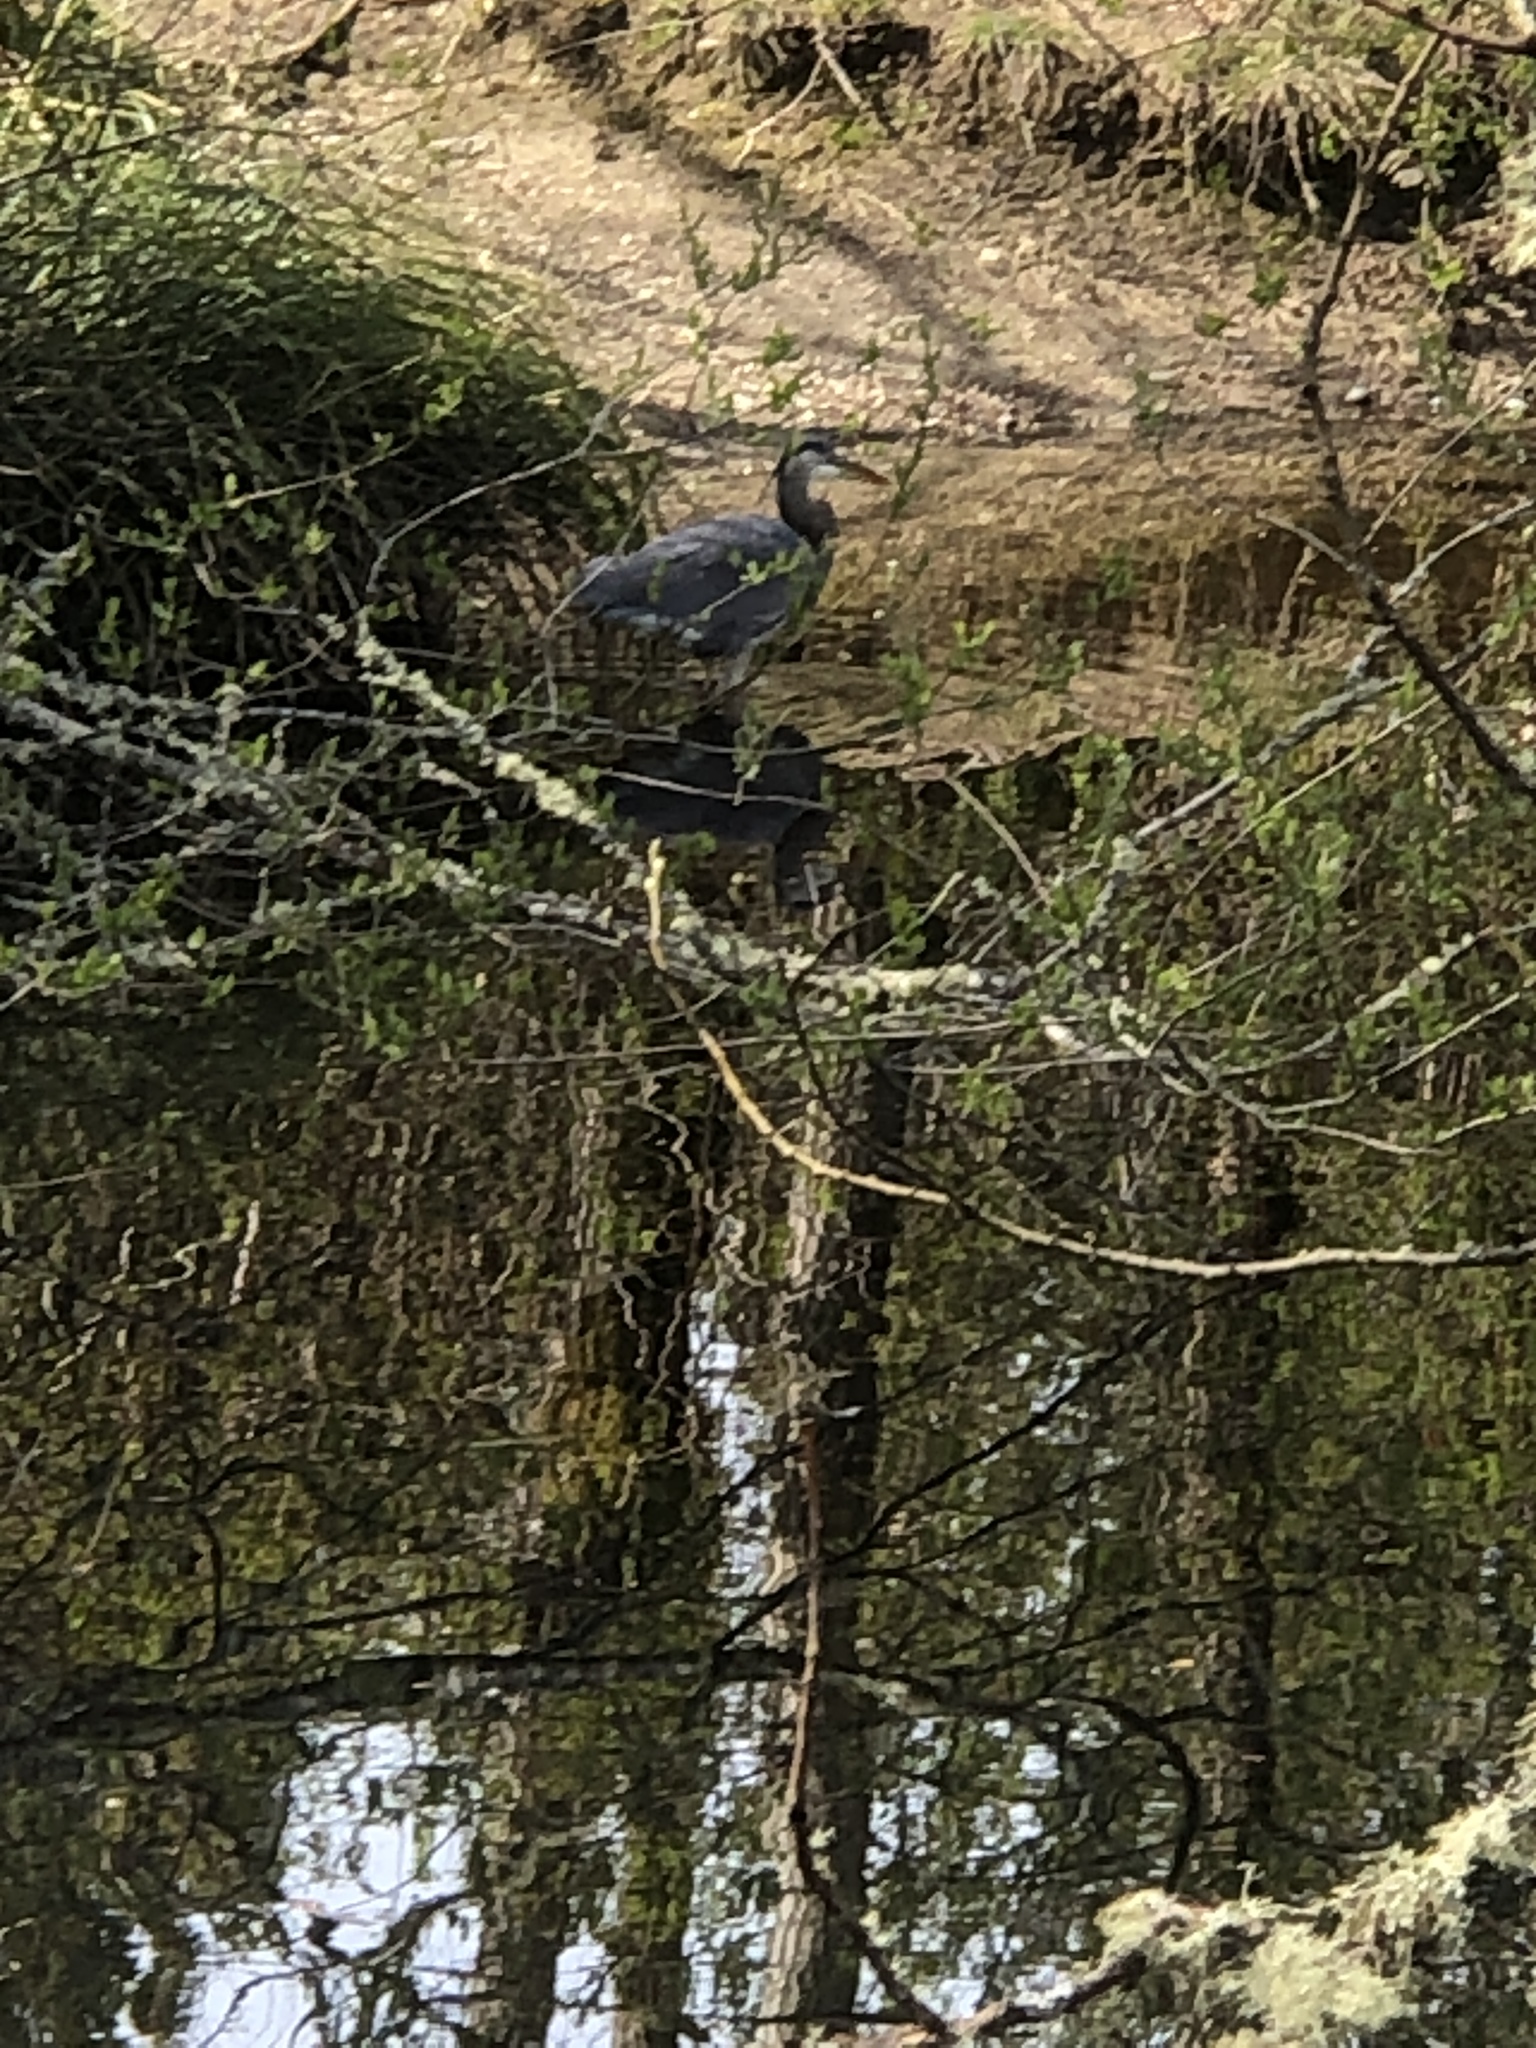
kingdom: Animalia
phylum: Chordata
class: Aves
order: Pelecaniformes
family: Ardeidae
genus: Ardea
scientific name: Ardea herodias
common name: Great blue heron
